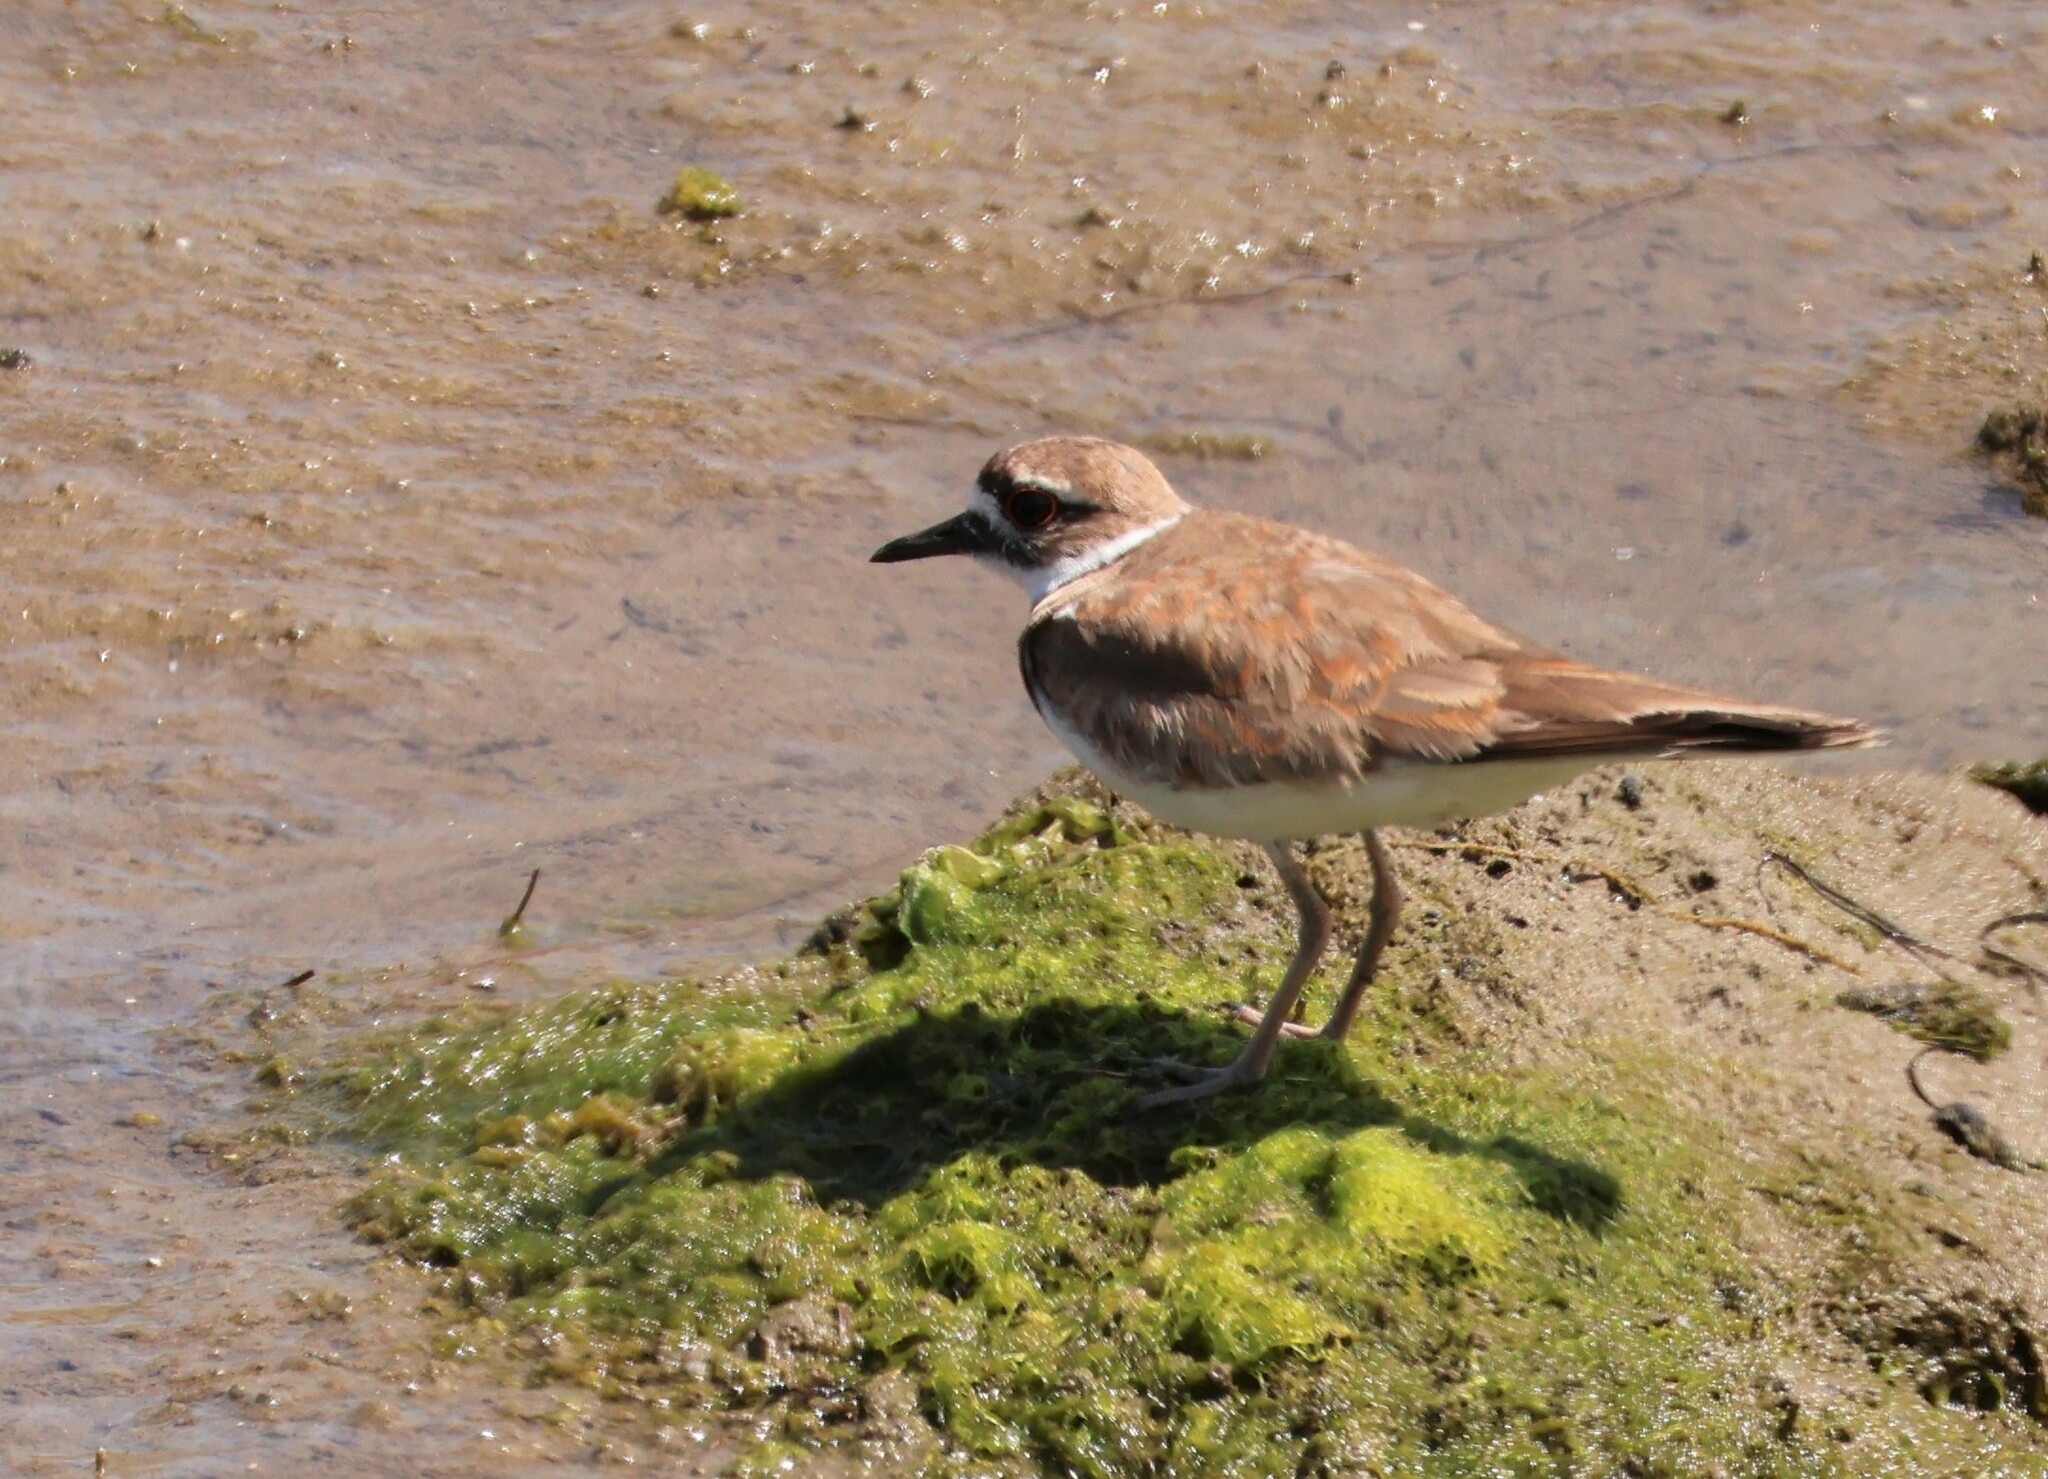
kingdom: Animalia
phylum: Chordata
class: Aves
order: Charadriiformes
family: Charadriidae
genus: Charadrius
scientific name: Charadrius vociferus
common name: Killdeer
